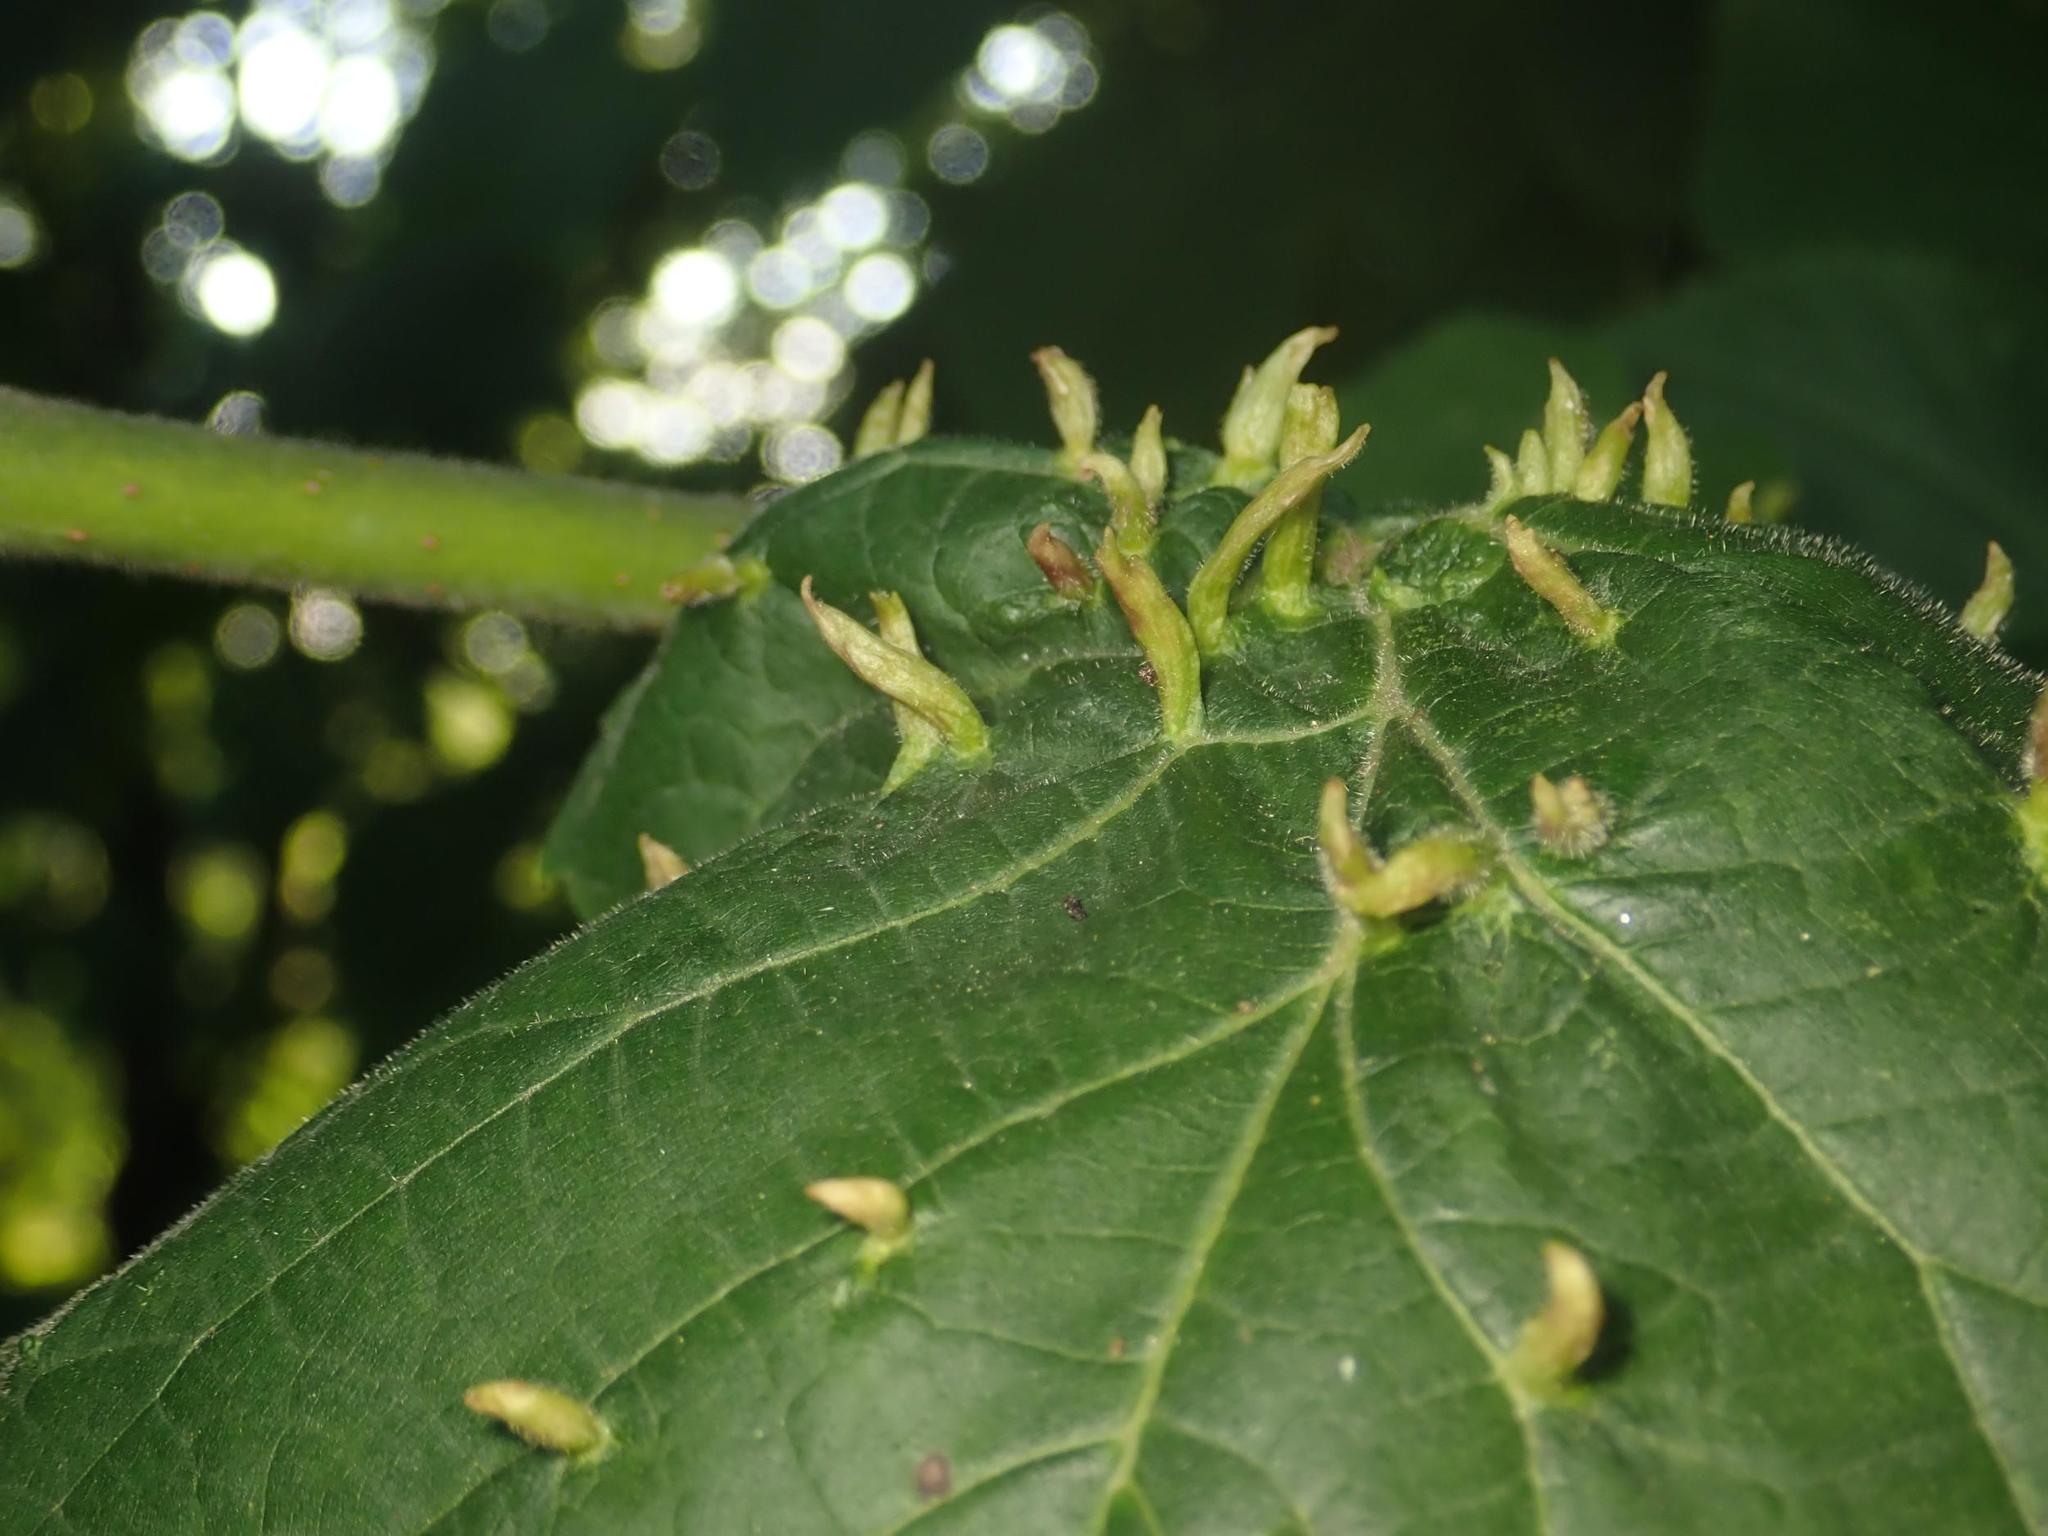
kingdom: Animalia
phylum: Arthropoda
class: Arachnida
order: Trombidiformes
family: Eriophyidae
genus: Eriophyes
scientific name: Eriophyes tiliae
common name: Red nail gall mite
